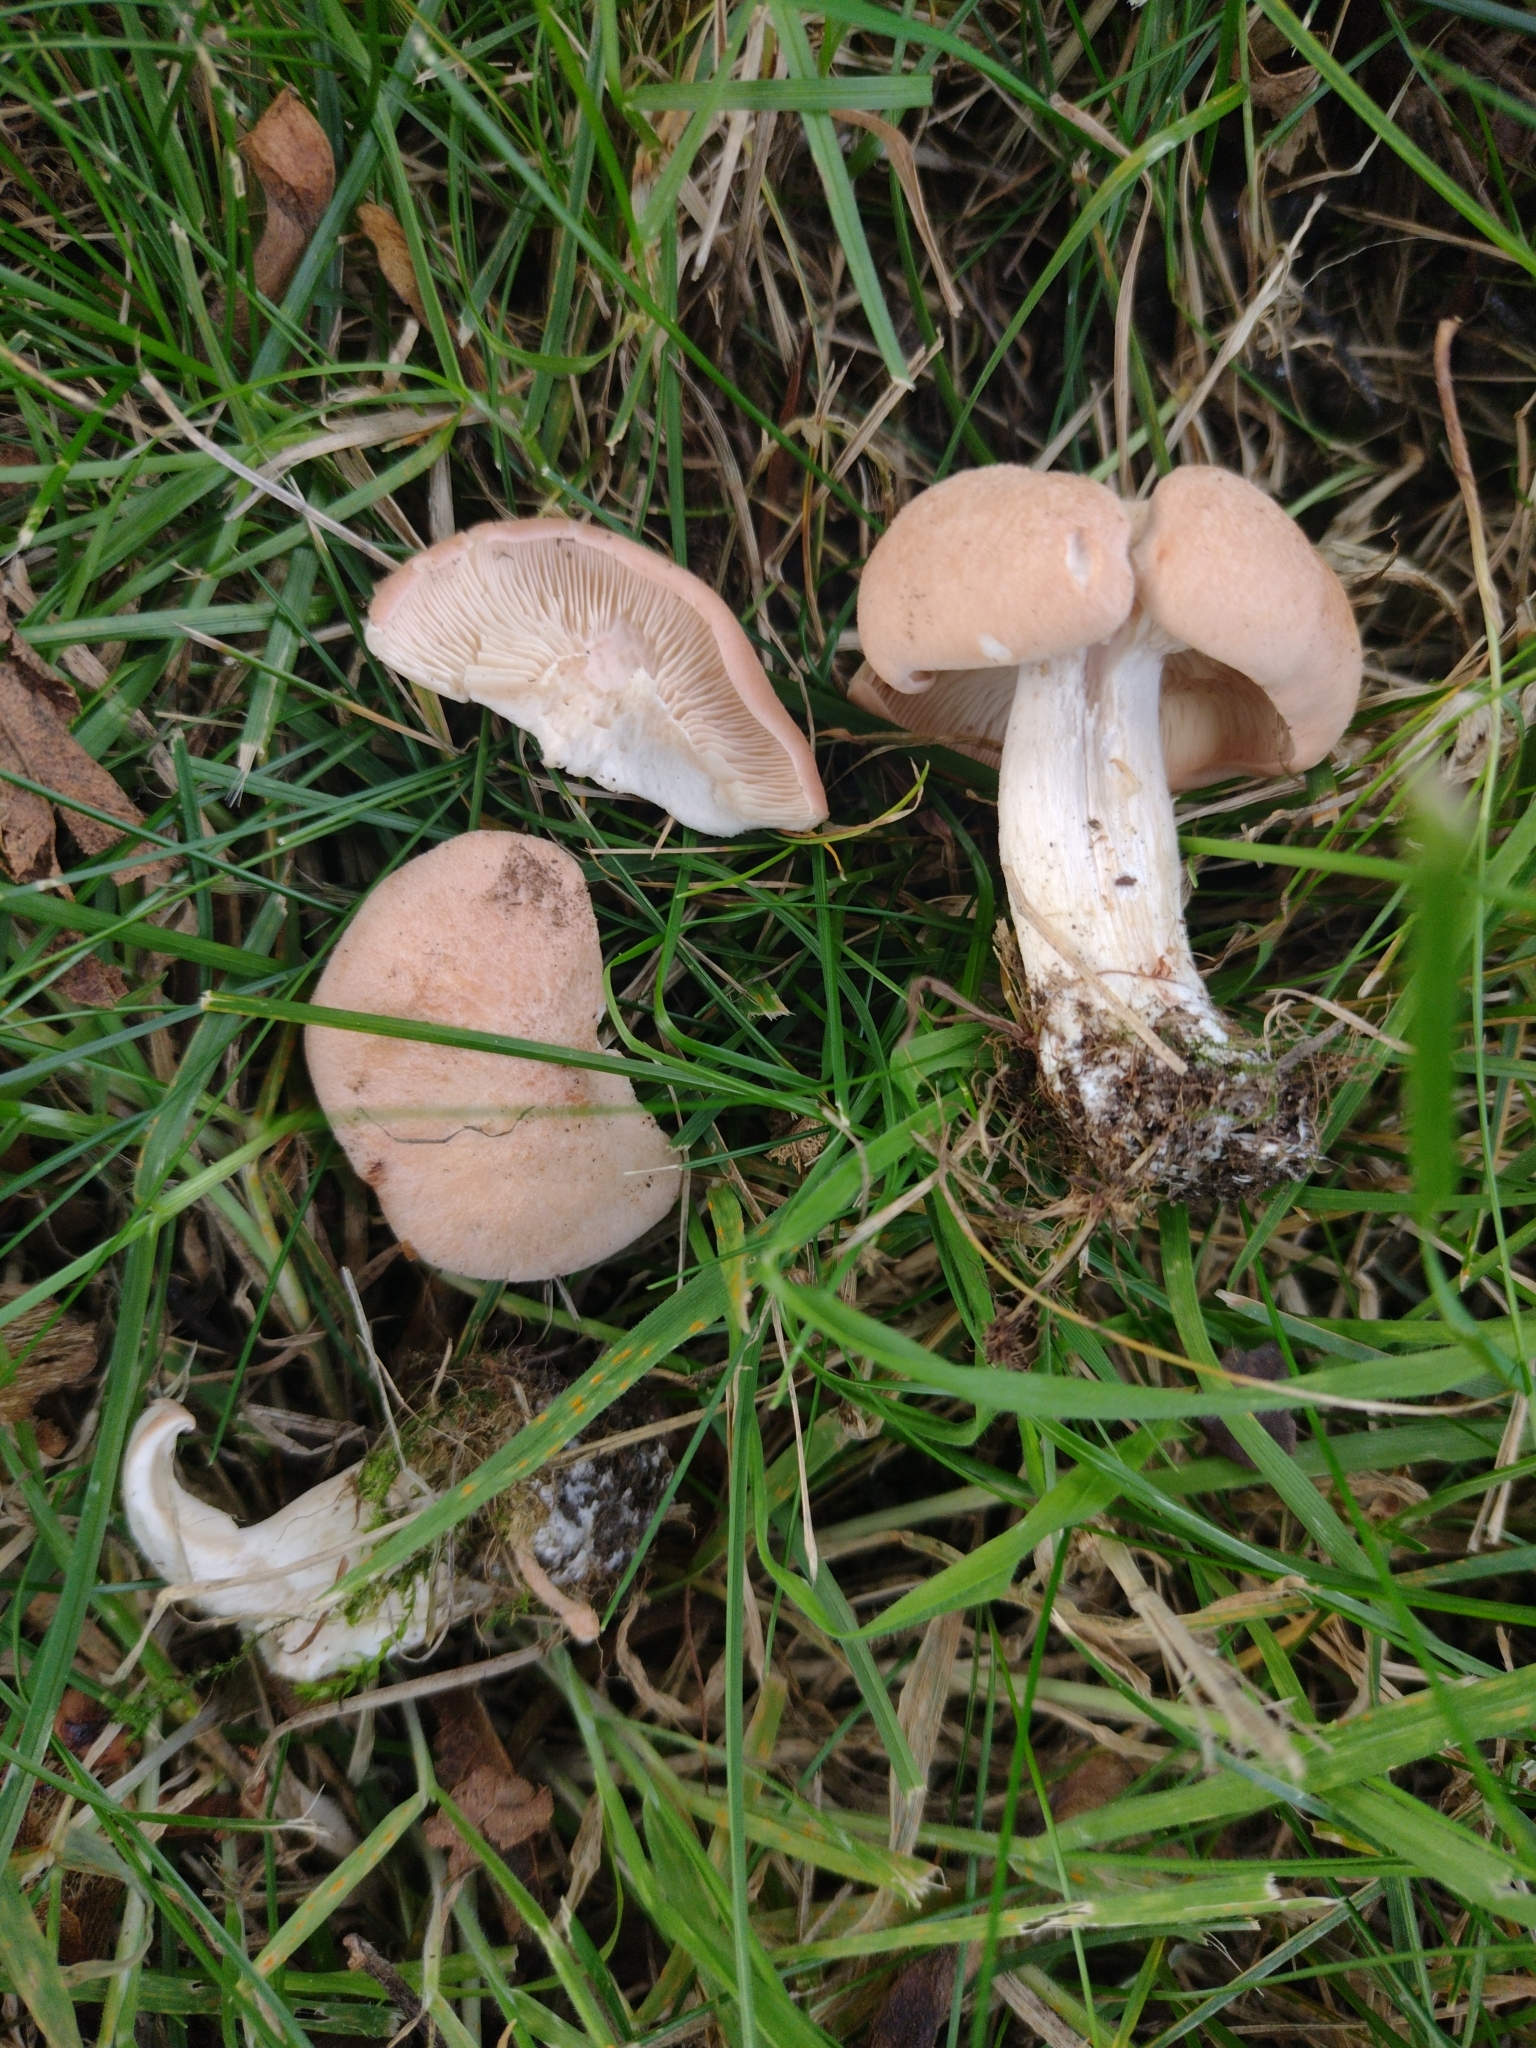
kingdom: Fungi
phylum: Basidiomycota
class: Agaricomycetes
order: Agaricales
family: Entolomataceae
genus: Clitopilus
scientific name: Clitopilus geminus
